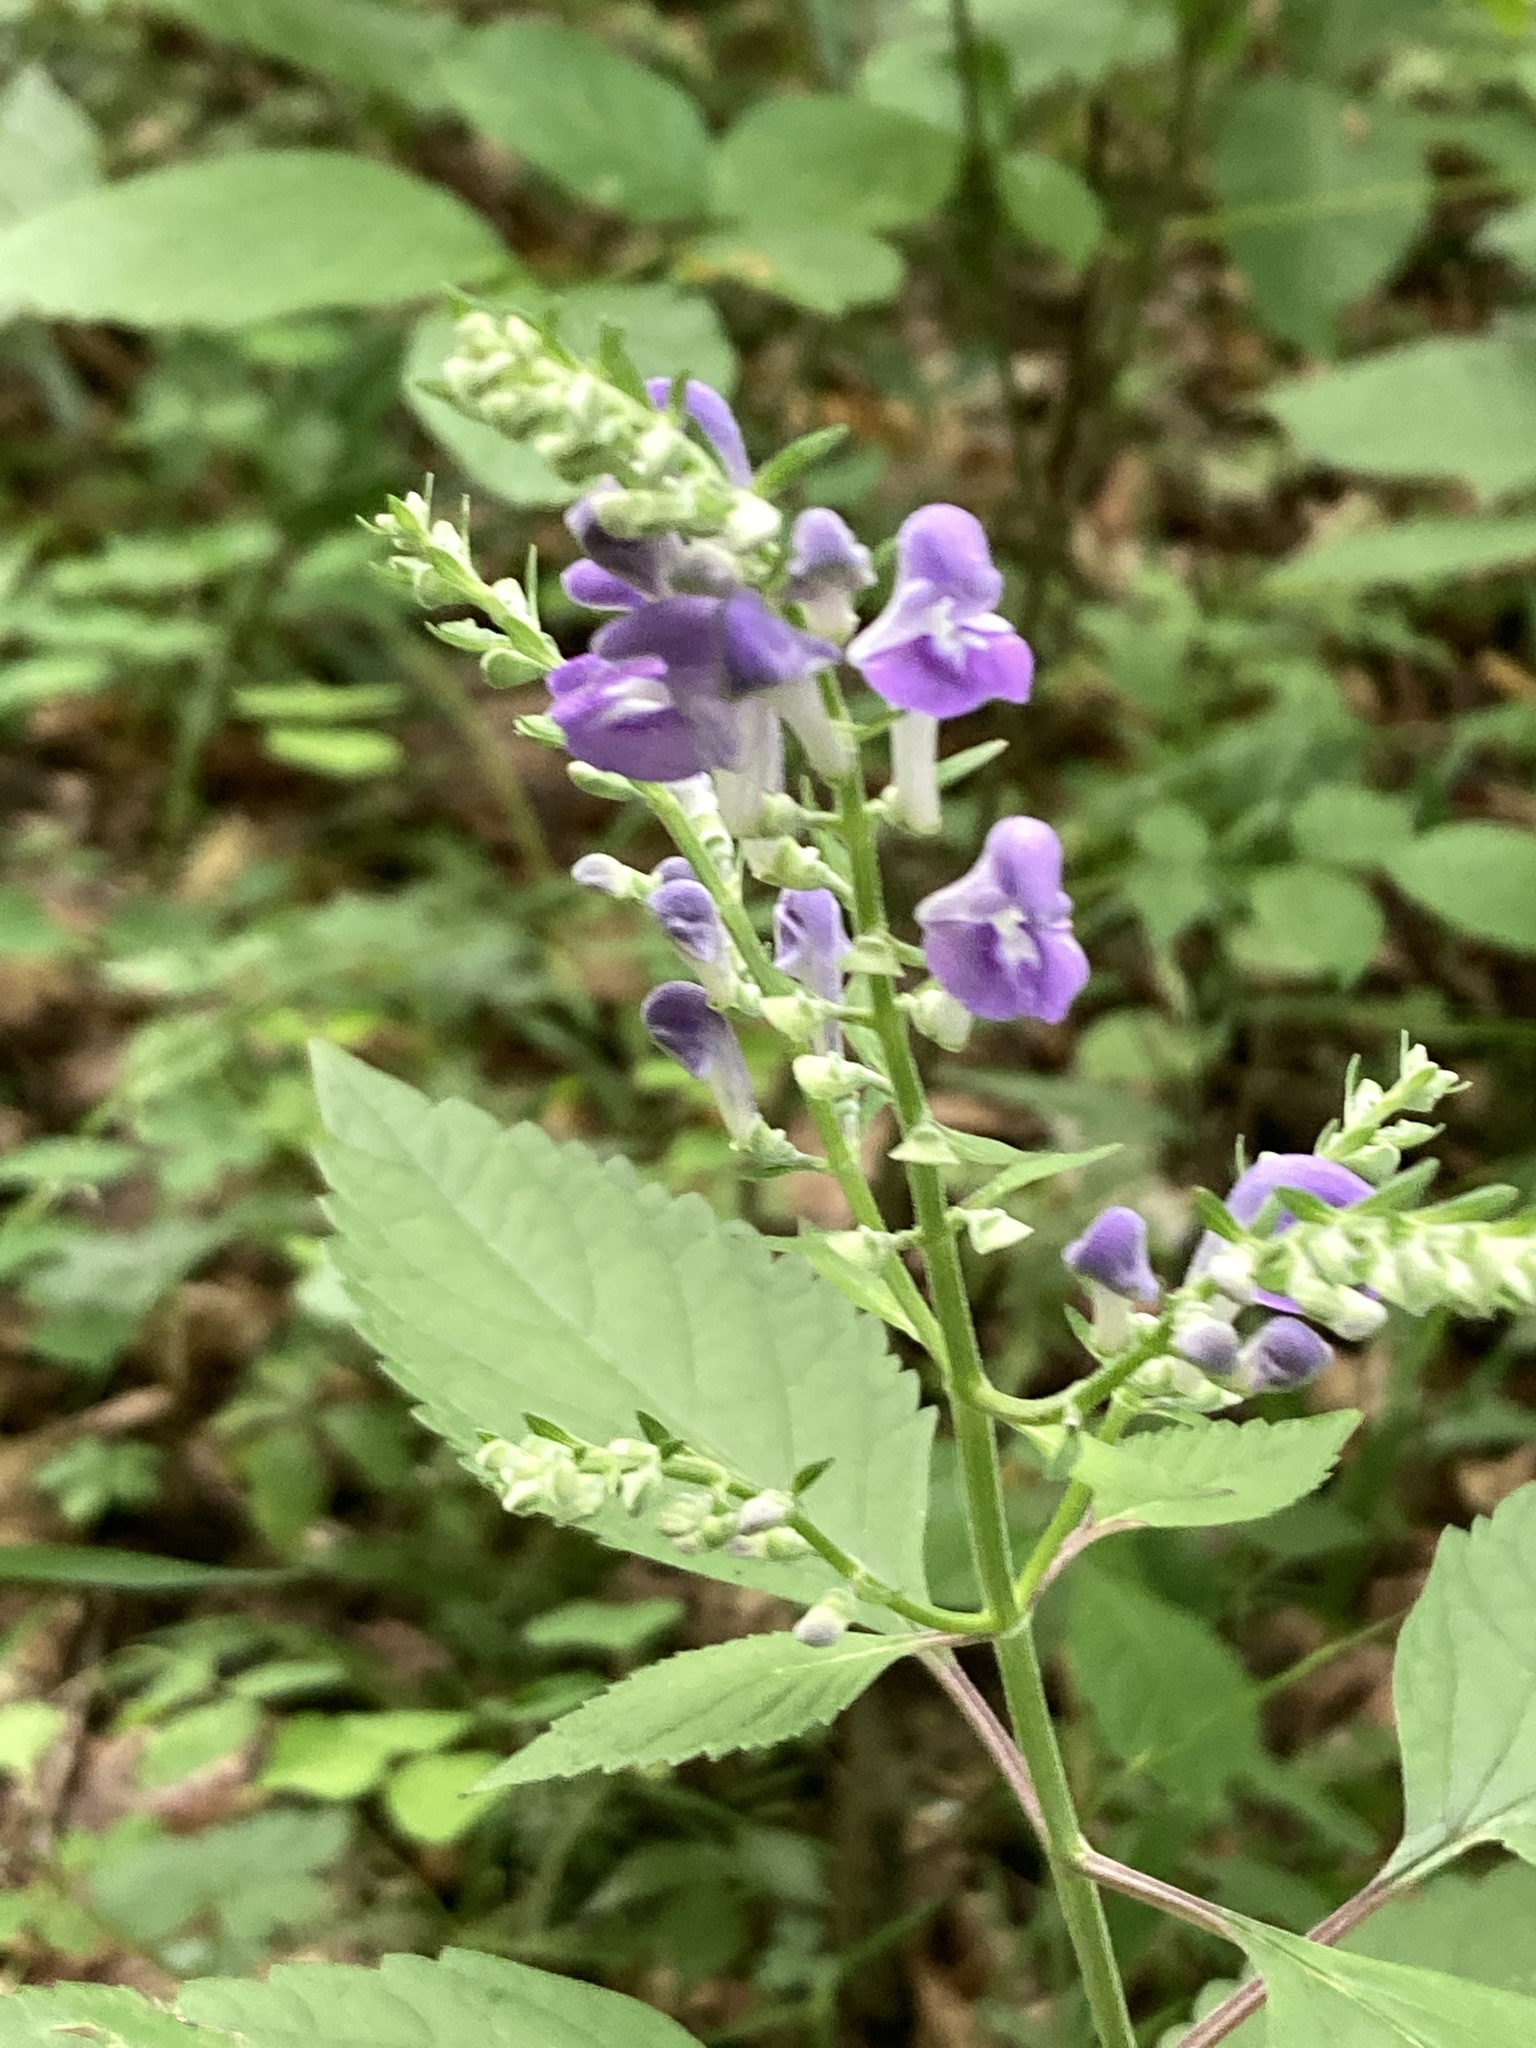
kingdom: Plantae
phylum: Tracheophyta
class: Magnoliopsida
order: Lamiales
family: Lamiaceae
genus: Scutellaria
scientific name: Scutellaria incana
